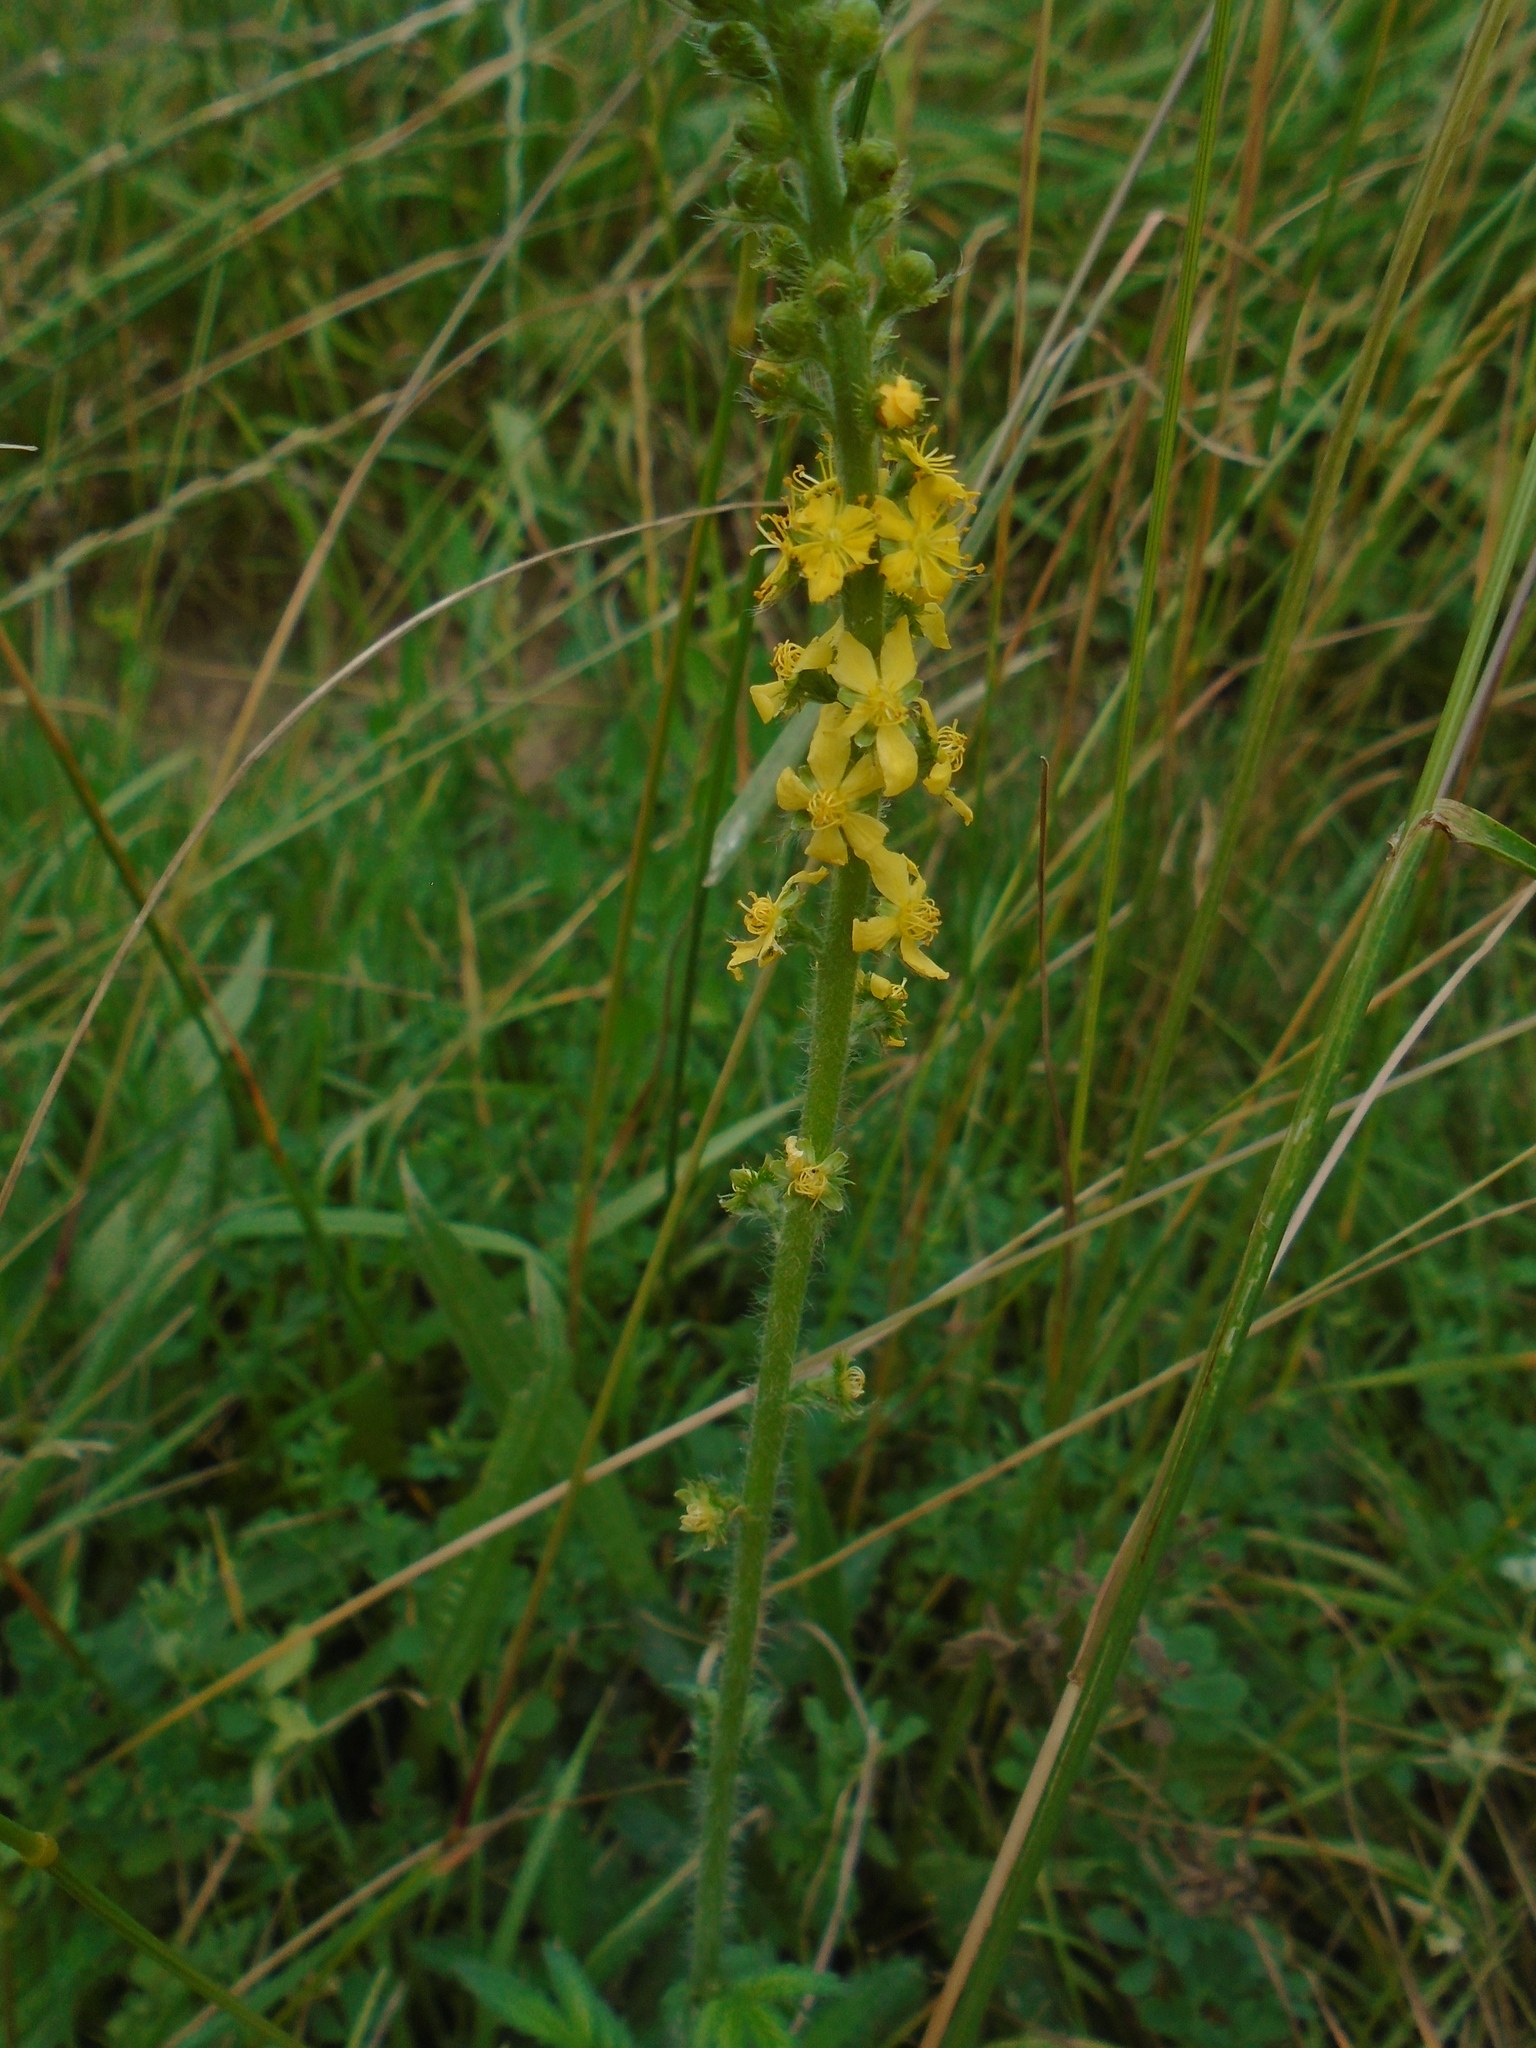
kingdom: Plantae
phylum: Tracheophyta
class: Magnoliopsida
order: Rosales
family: Rosaceae
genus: Agrimonia
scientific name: Agrimonia eupatoria
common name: Agrimony
